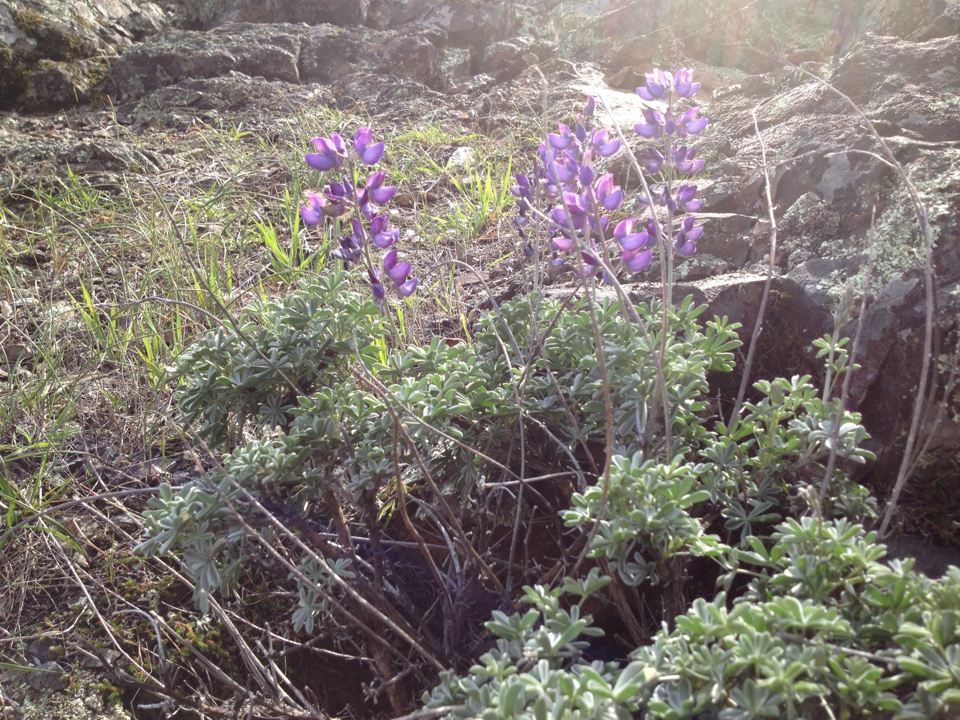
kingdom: Plantae
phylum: Tracheophyta
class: Magnoliopsida
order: Fabales
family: Fabaceae
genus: Lupinus
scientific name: Lupinus albifrons
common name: Foothill lupine
